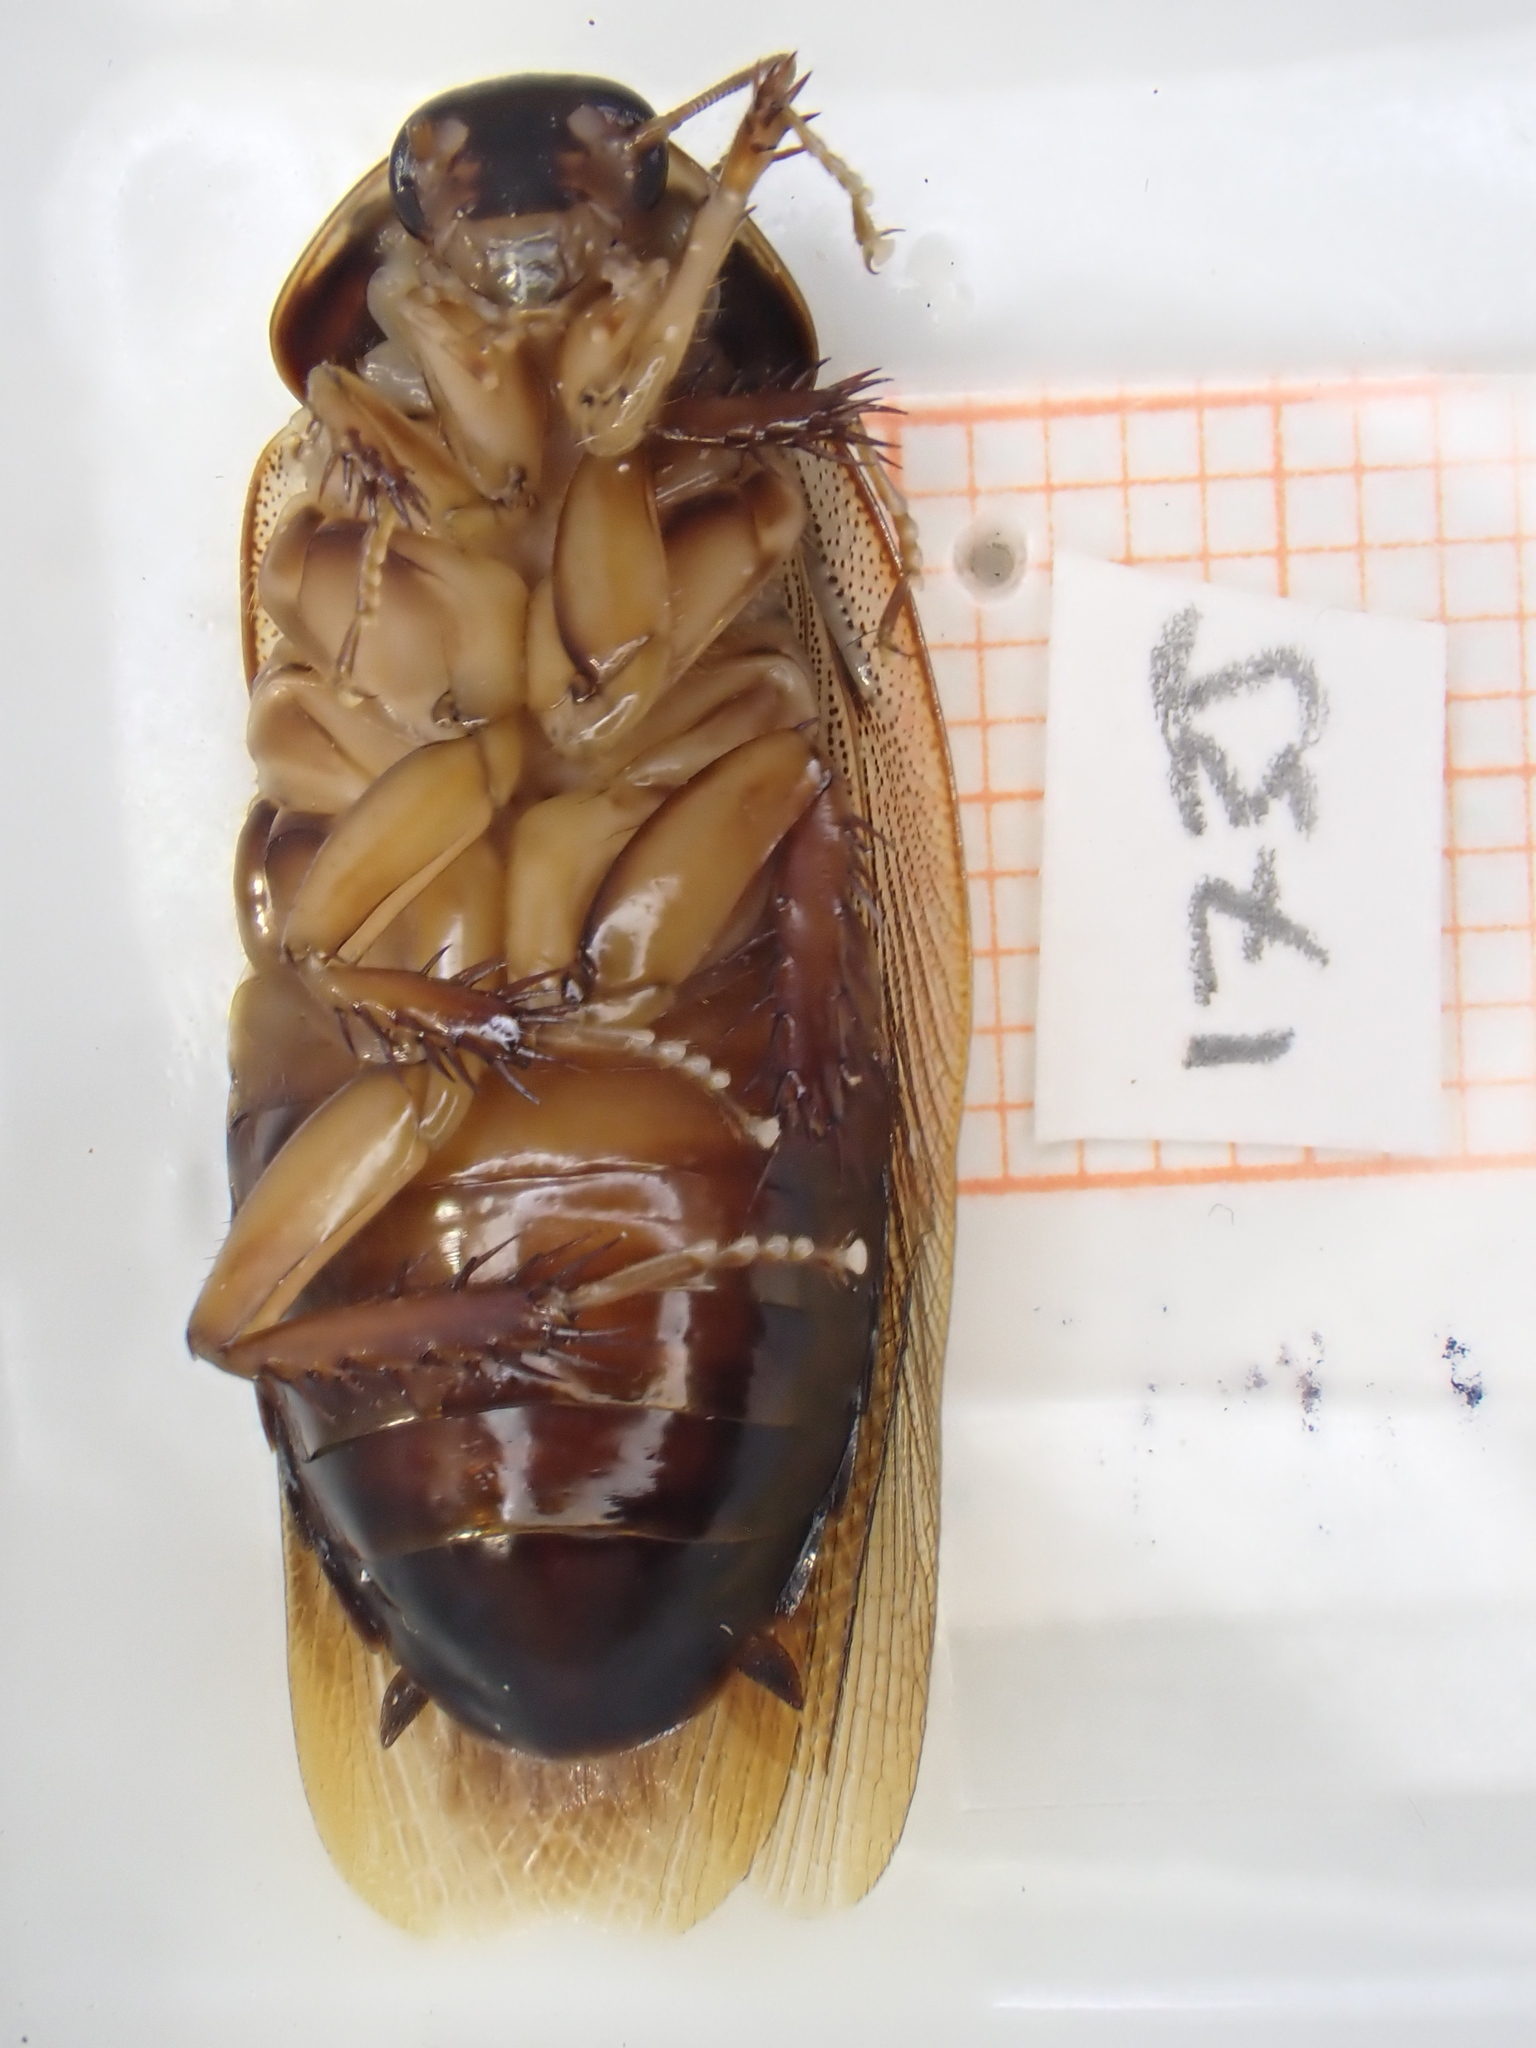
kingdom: Animalia
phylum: Arthropoda
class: Insecta
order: Blattodea
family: Blaberidae
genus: Pycnoscelus
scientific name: Pycnoscelus surinamensis
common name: Surinam cockroach
